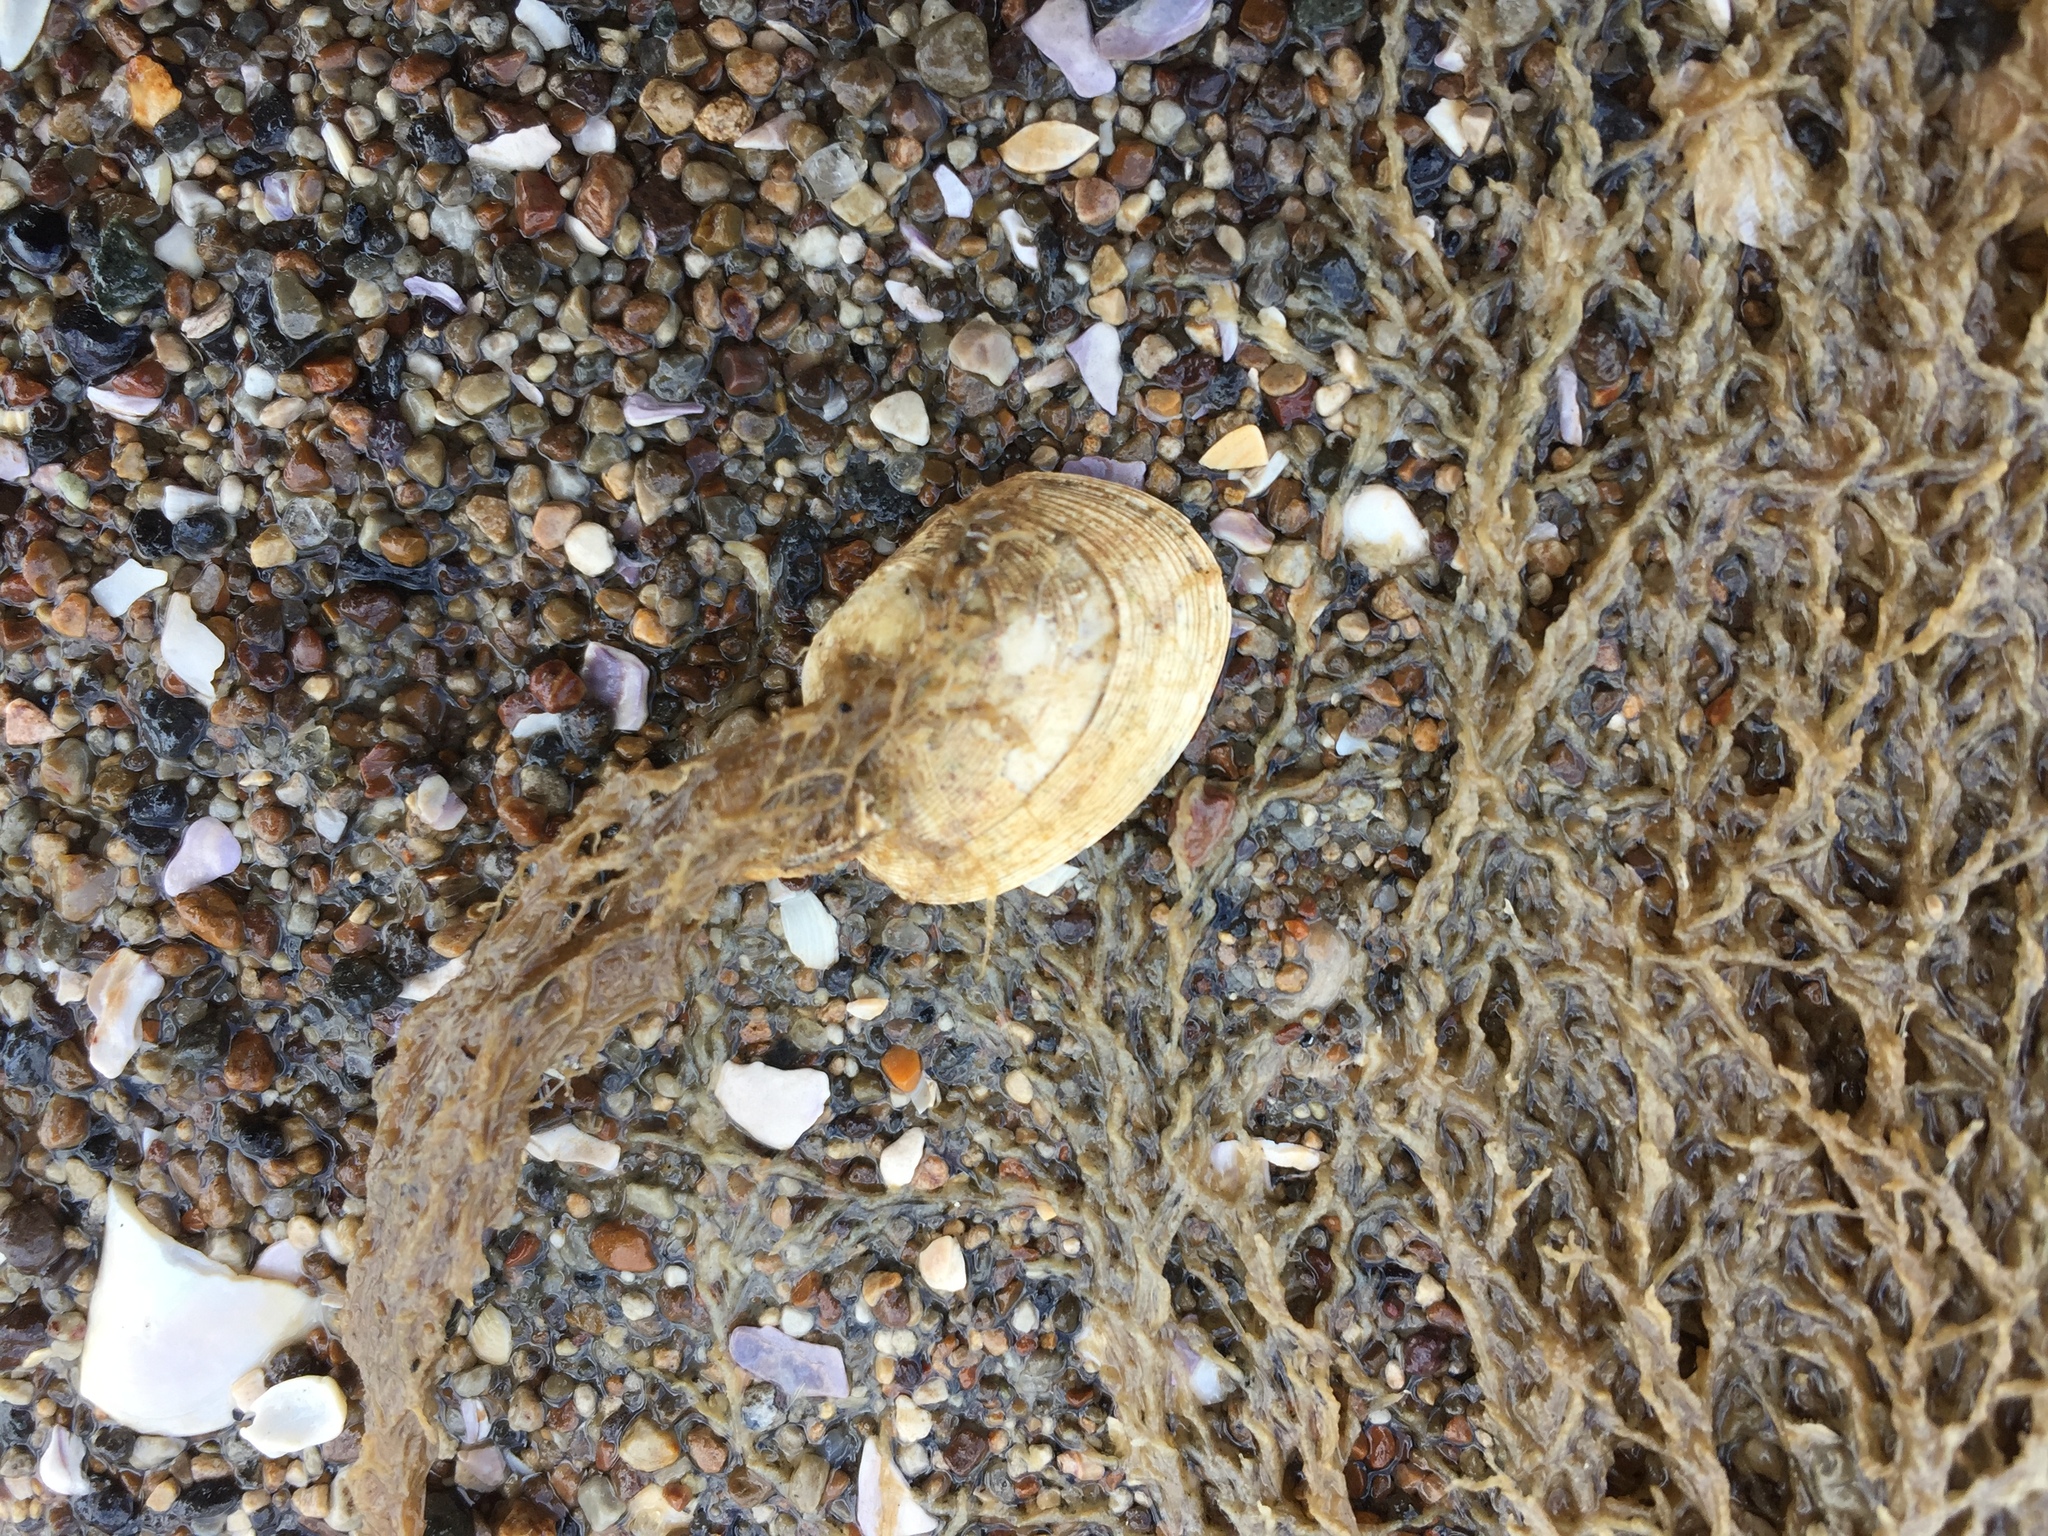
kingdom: Animalia
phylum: Mollusca
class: Bivalvia
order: Venerida
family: Veneridae
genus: Venerupis
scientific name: Venerupis largillierti
